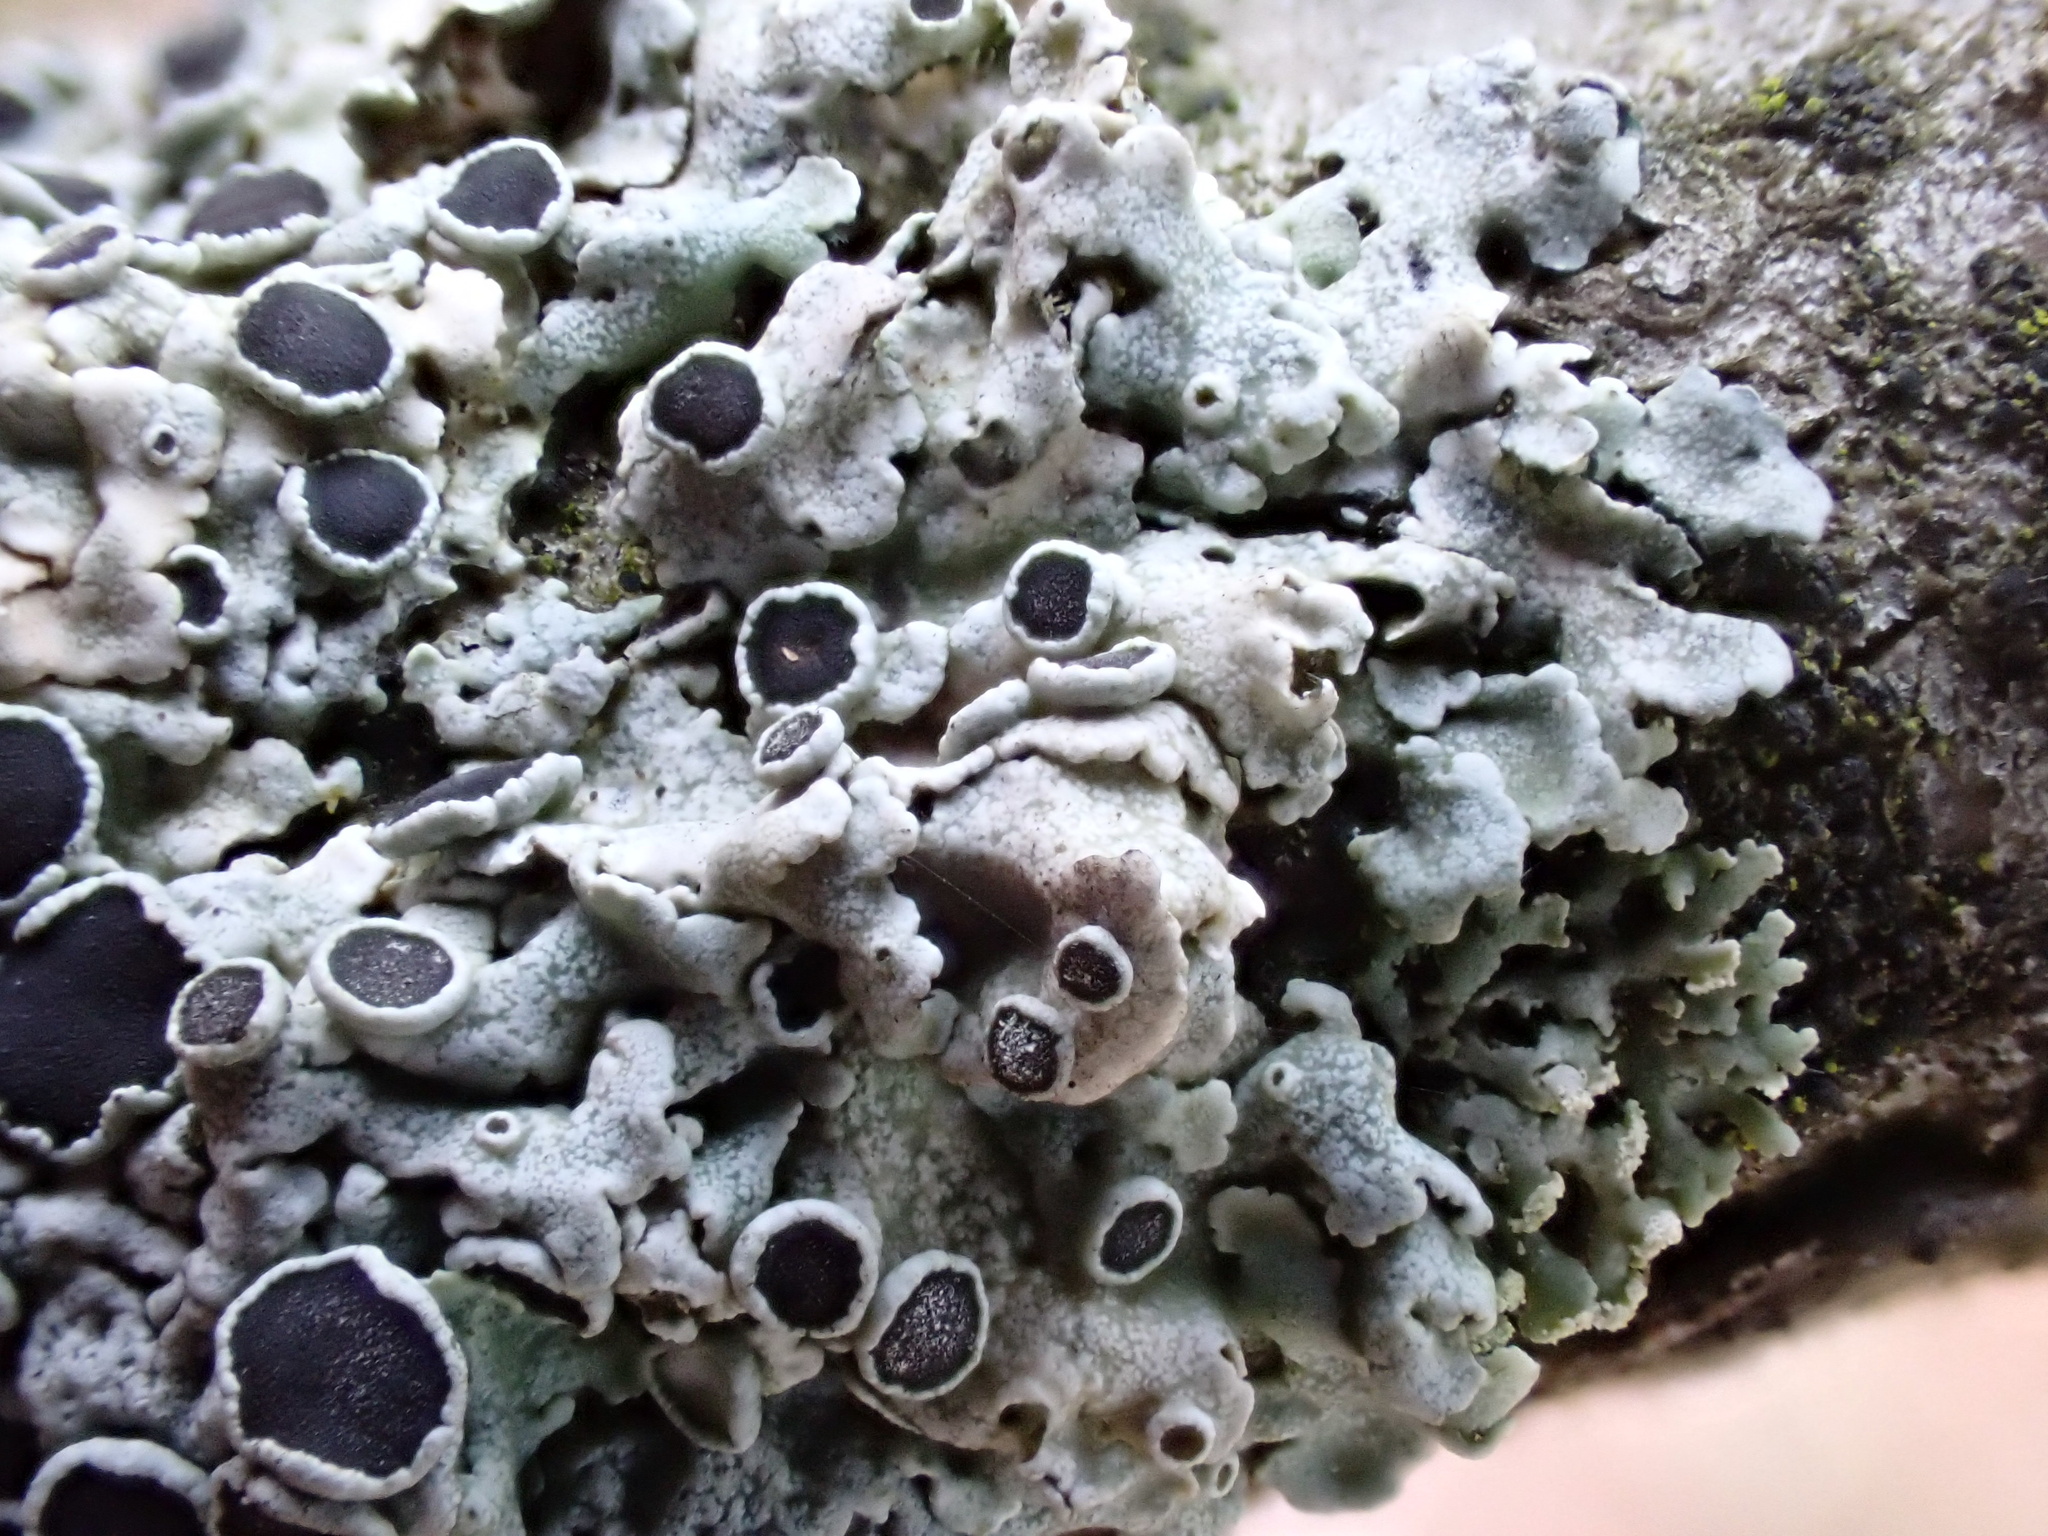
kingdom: Fungi
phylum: Ascomycota
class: Lecanoromycetes
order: Caliciales
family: Physciaceae
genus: Physcia
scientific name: Physcia aipolia
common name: Hoary rosette lichen
